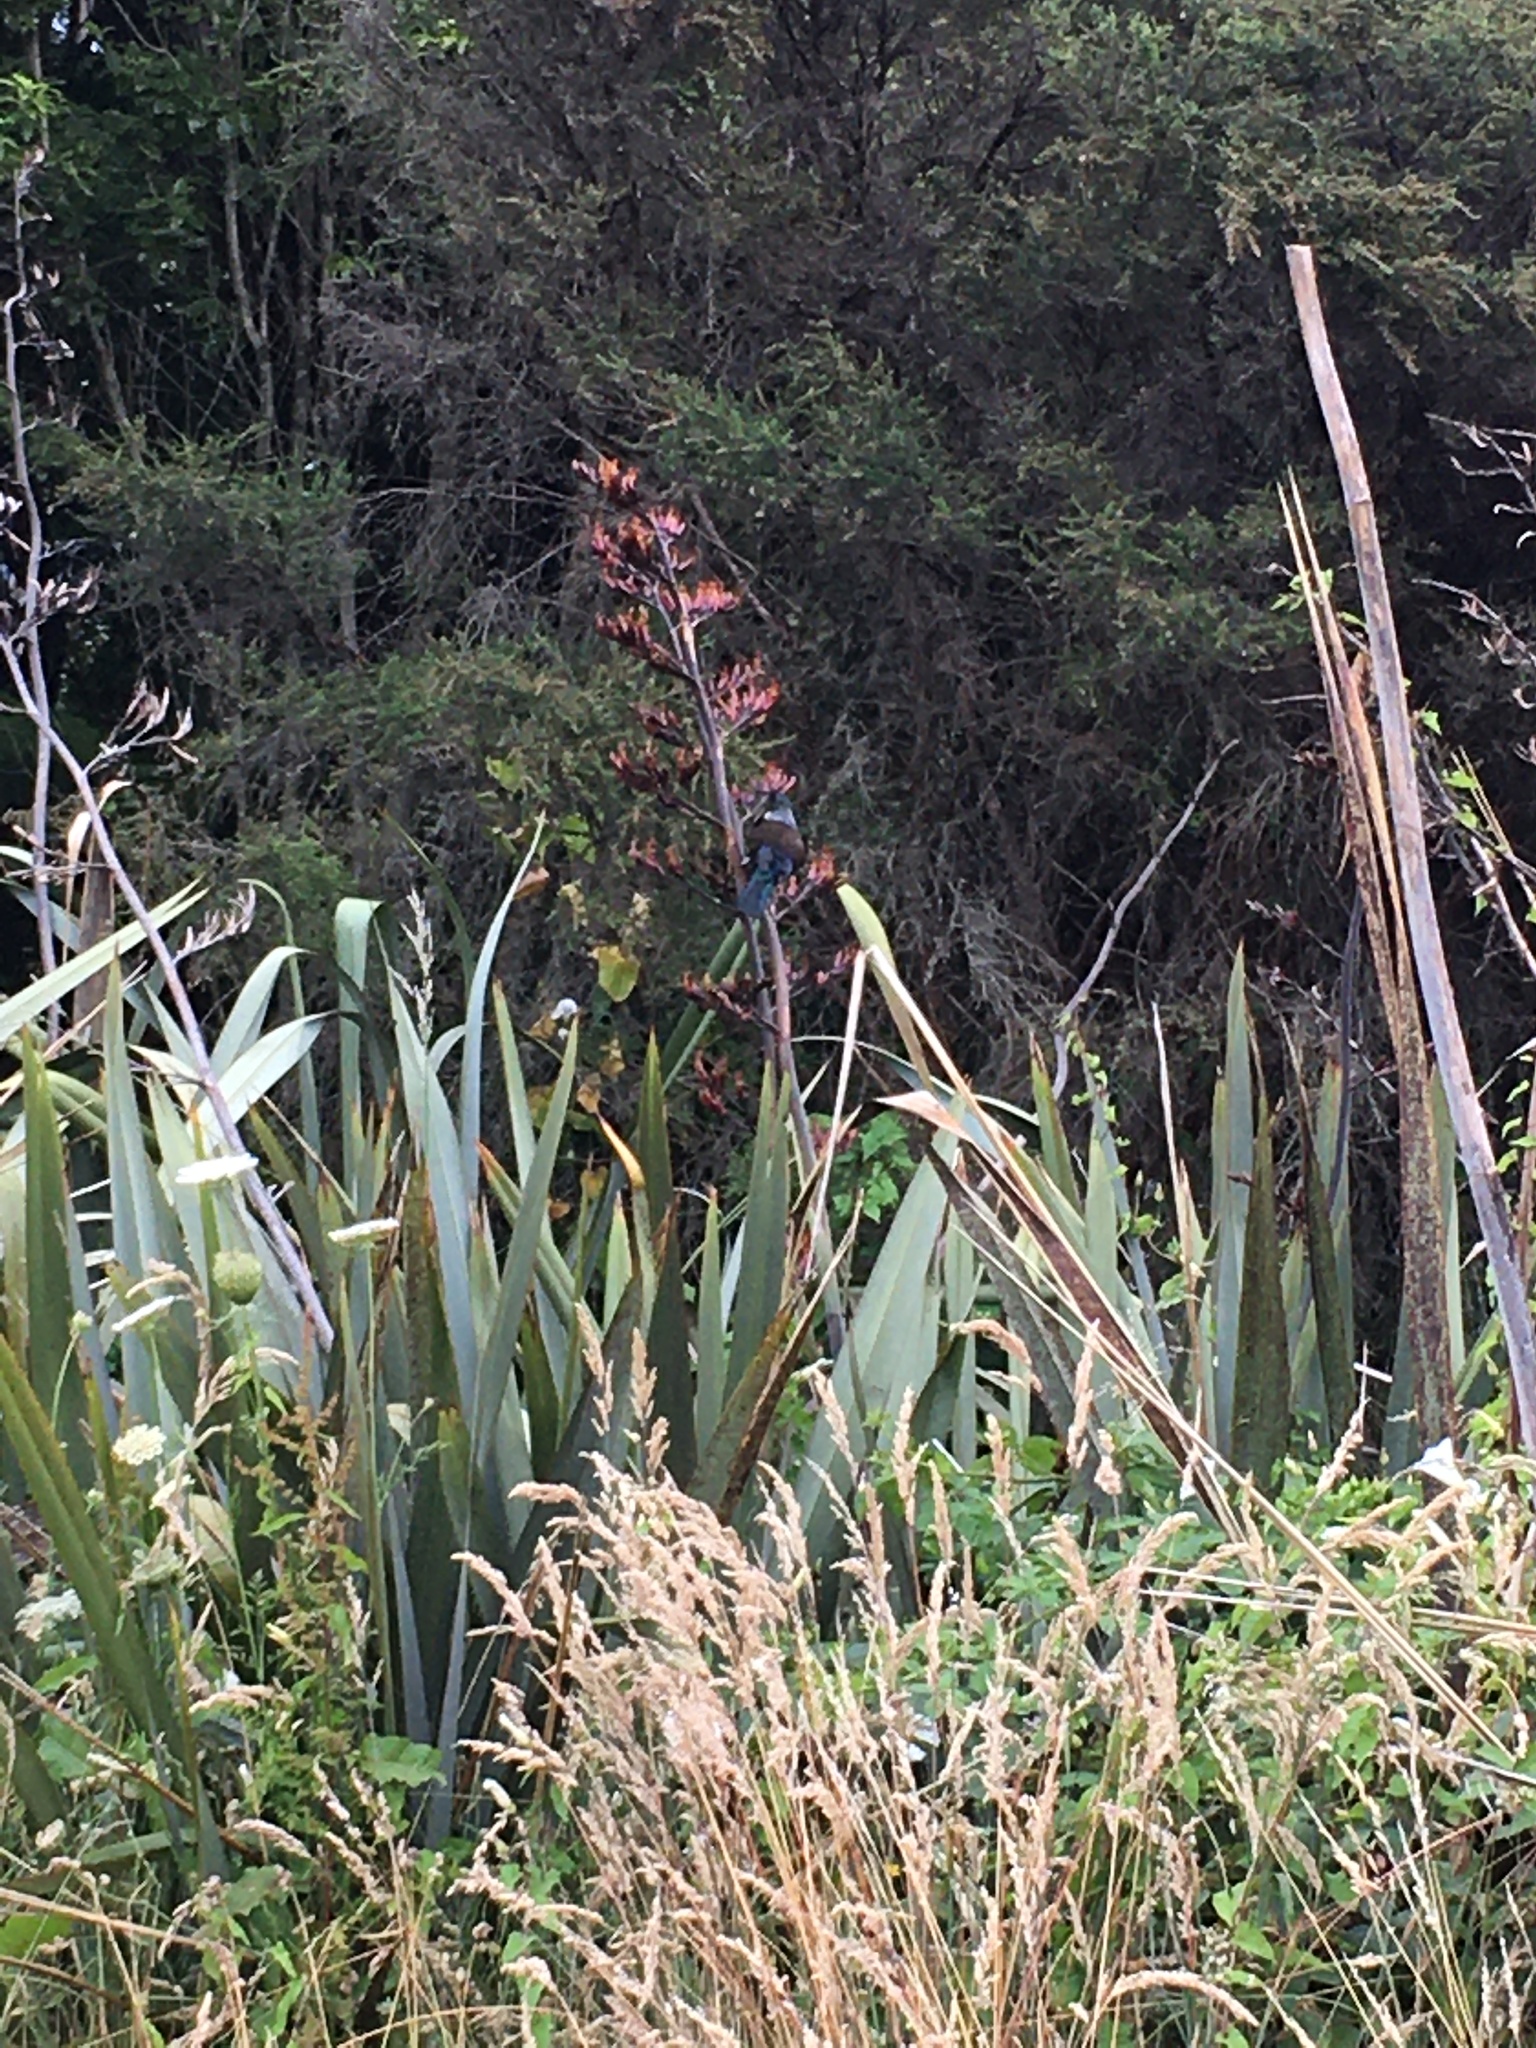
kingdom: Animalia
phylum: Chordata
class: Aves
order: Passeriformes
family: Meliphagidae
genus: Prosthemadera
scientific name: Prosthemadera novaeseelandiae
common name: Tui
